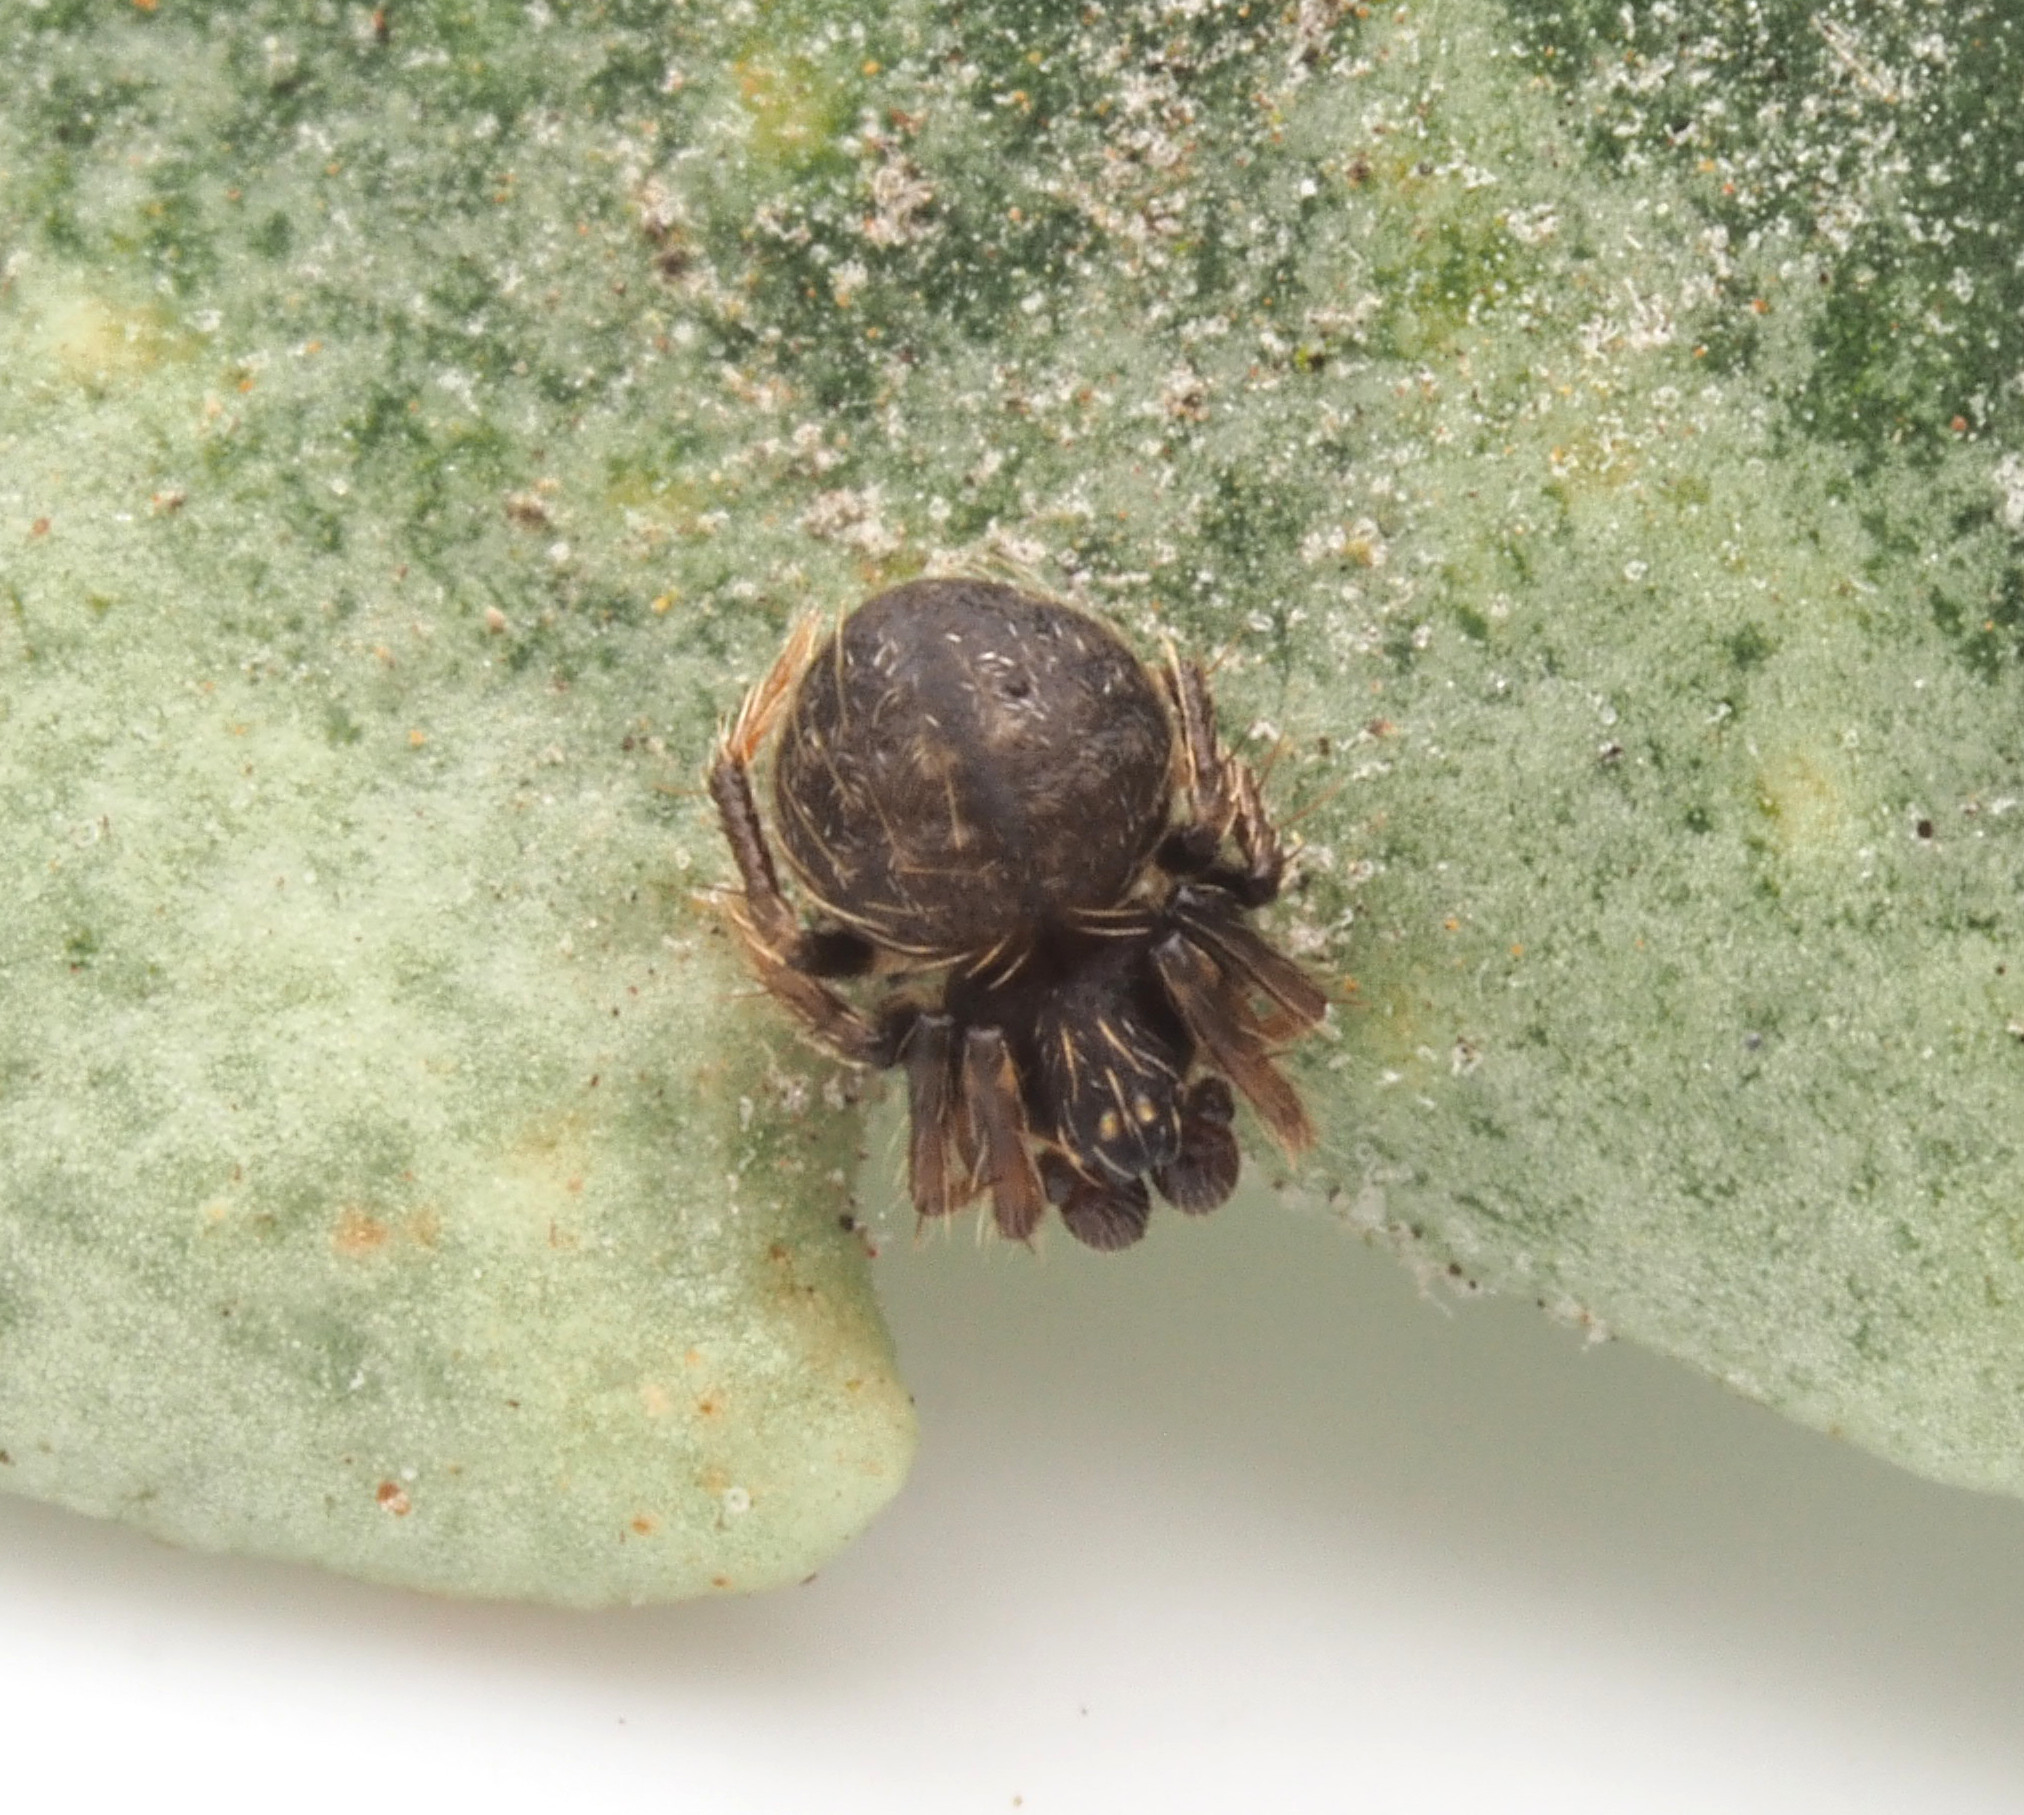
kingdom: Animalia
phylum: Arthropoda
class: Arachnida
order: Araneae
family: Theridiidae
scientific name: Theridiidae
